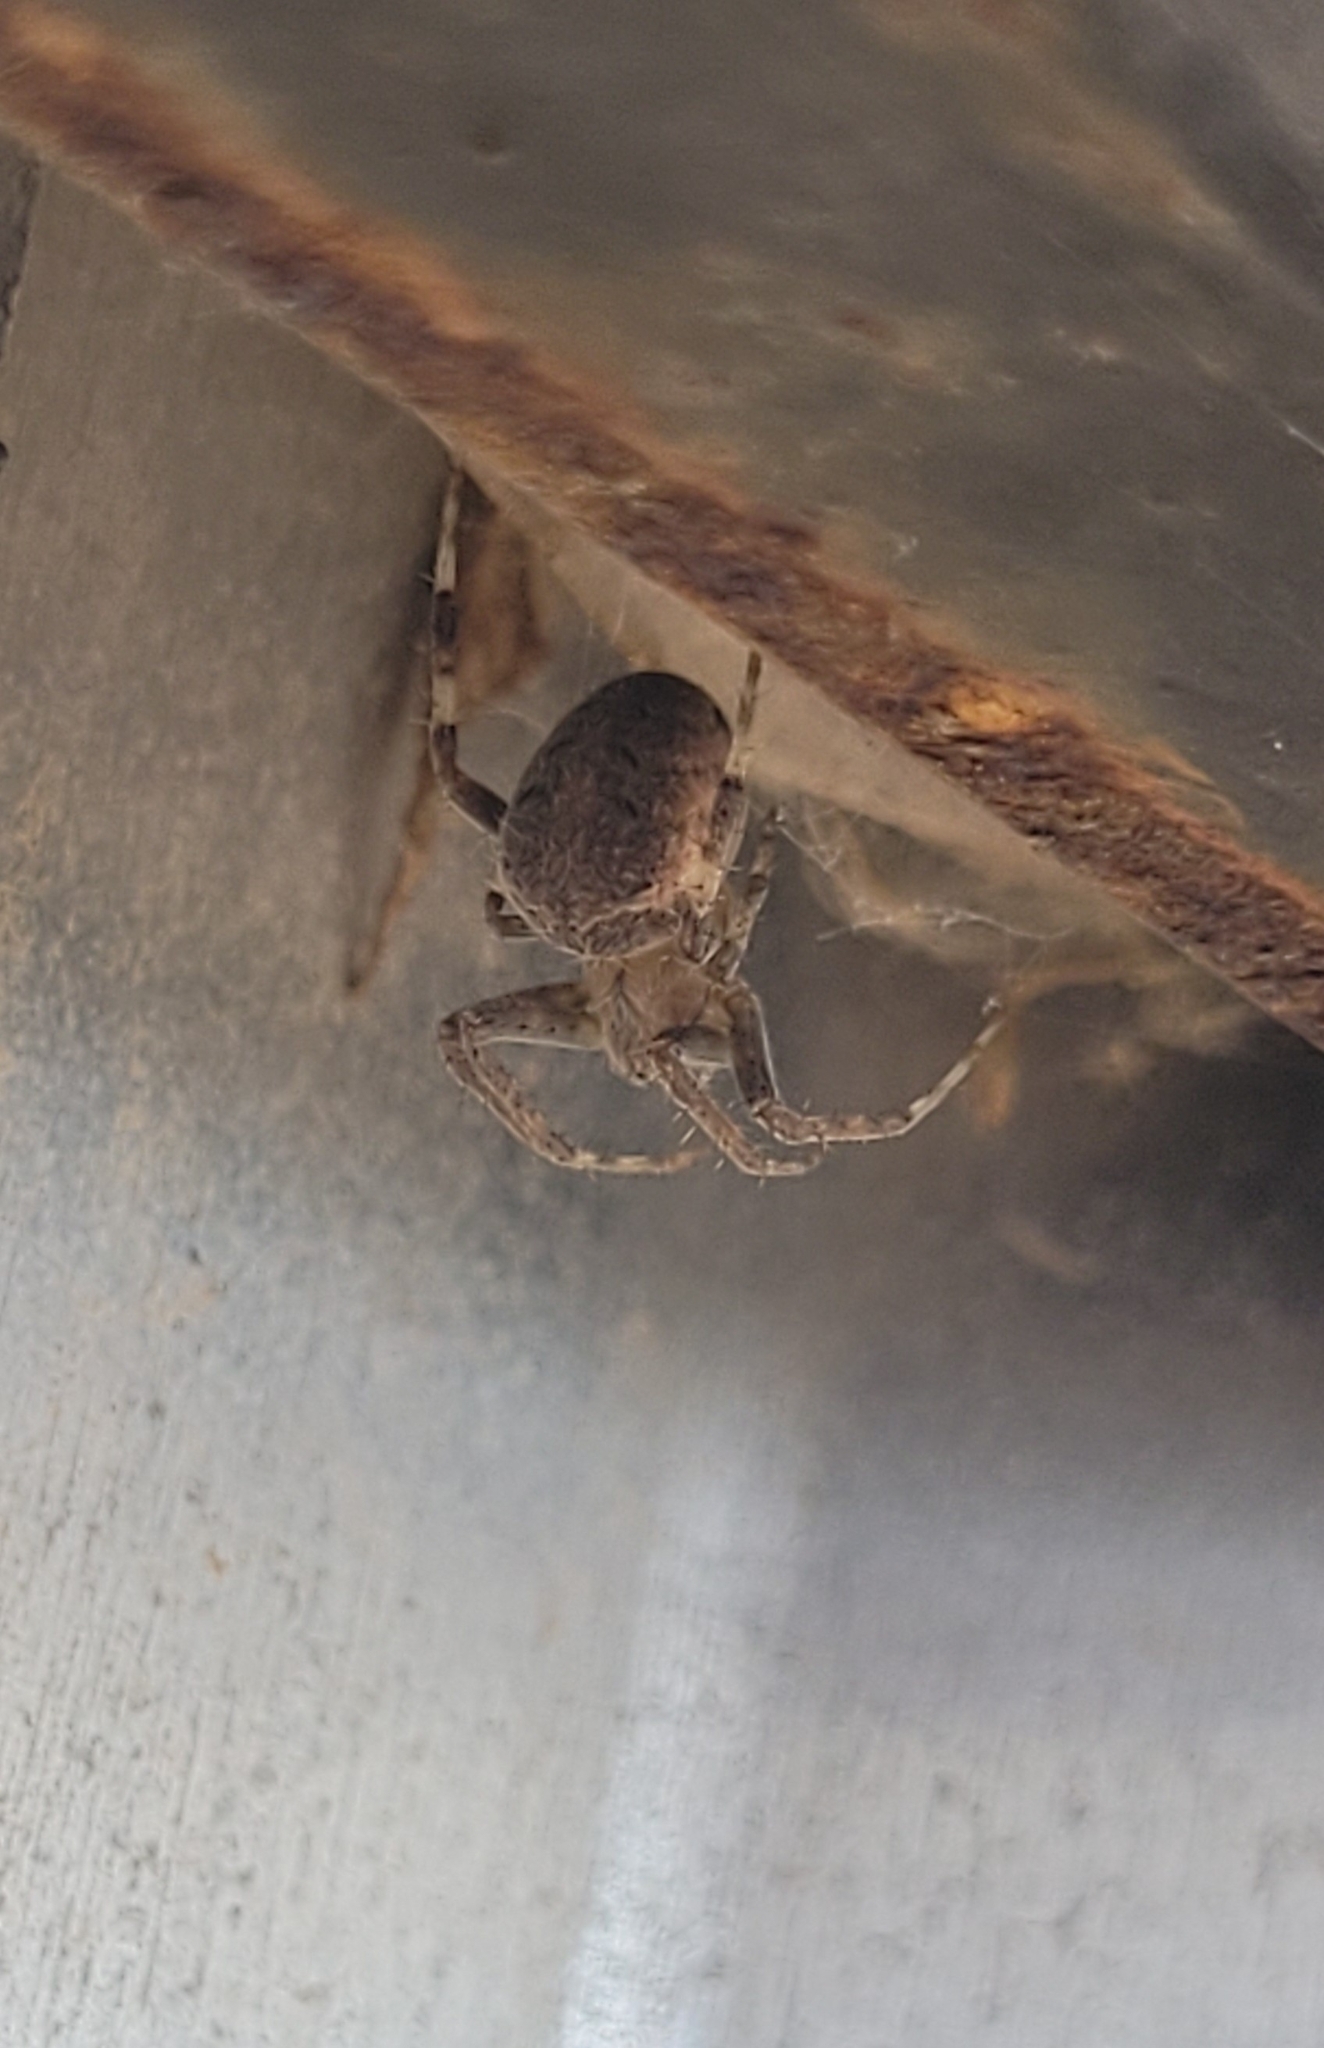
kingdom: Animalia
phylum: Arthropoda
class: Arachnida
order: Araneae
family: Araneidae
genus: Neoscona
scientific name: Neoscona spasskyi
